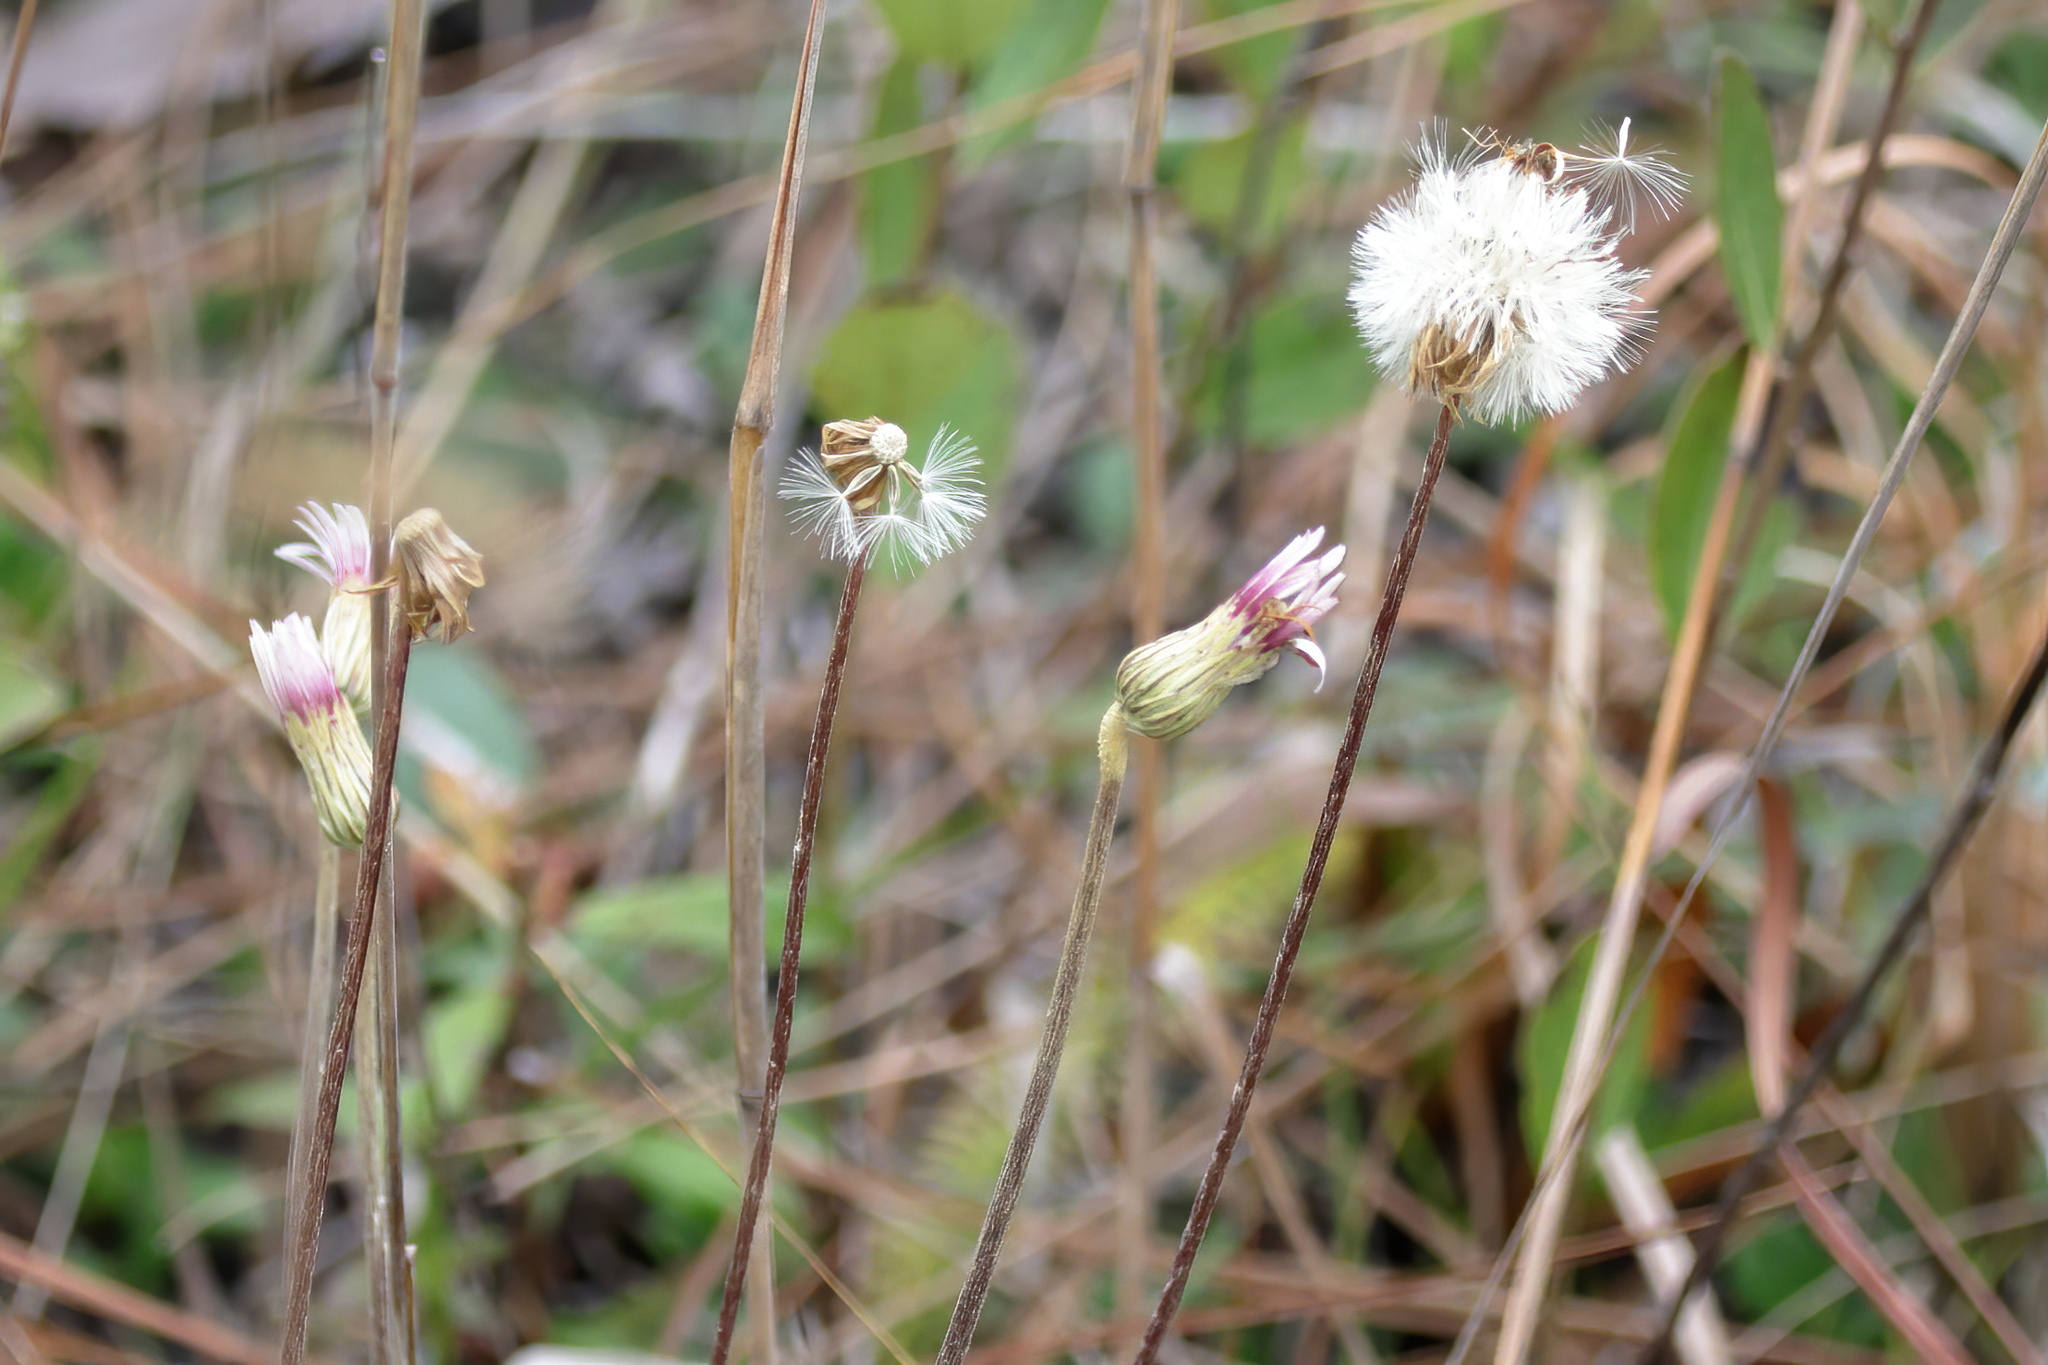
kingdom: Plantae
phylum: Tracheophyta
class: Magnoliopsida
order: Asterales
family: Asteraceae
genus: Chaptalia
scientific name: Chaptalia tomentosa
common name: Woolly sunbonnet
